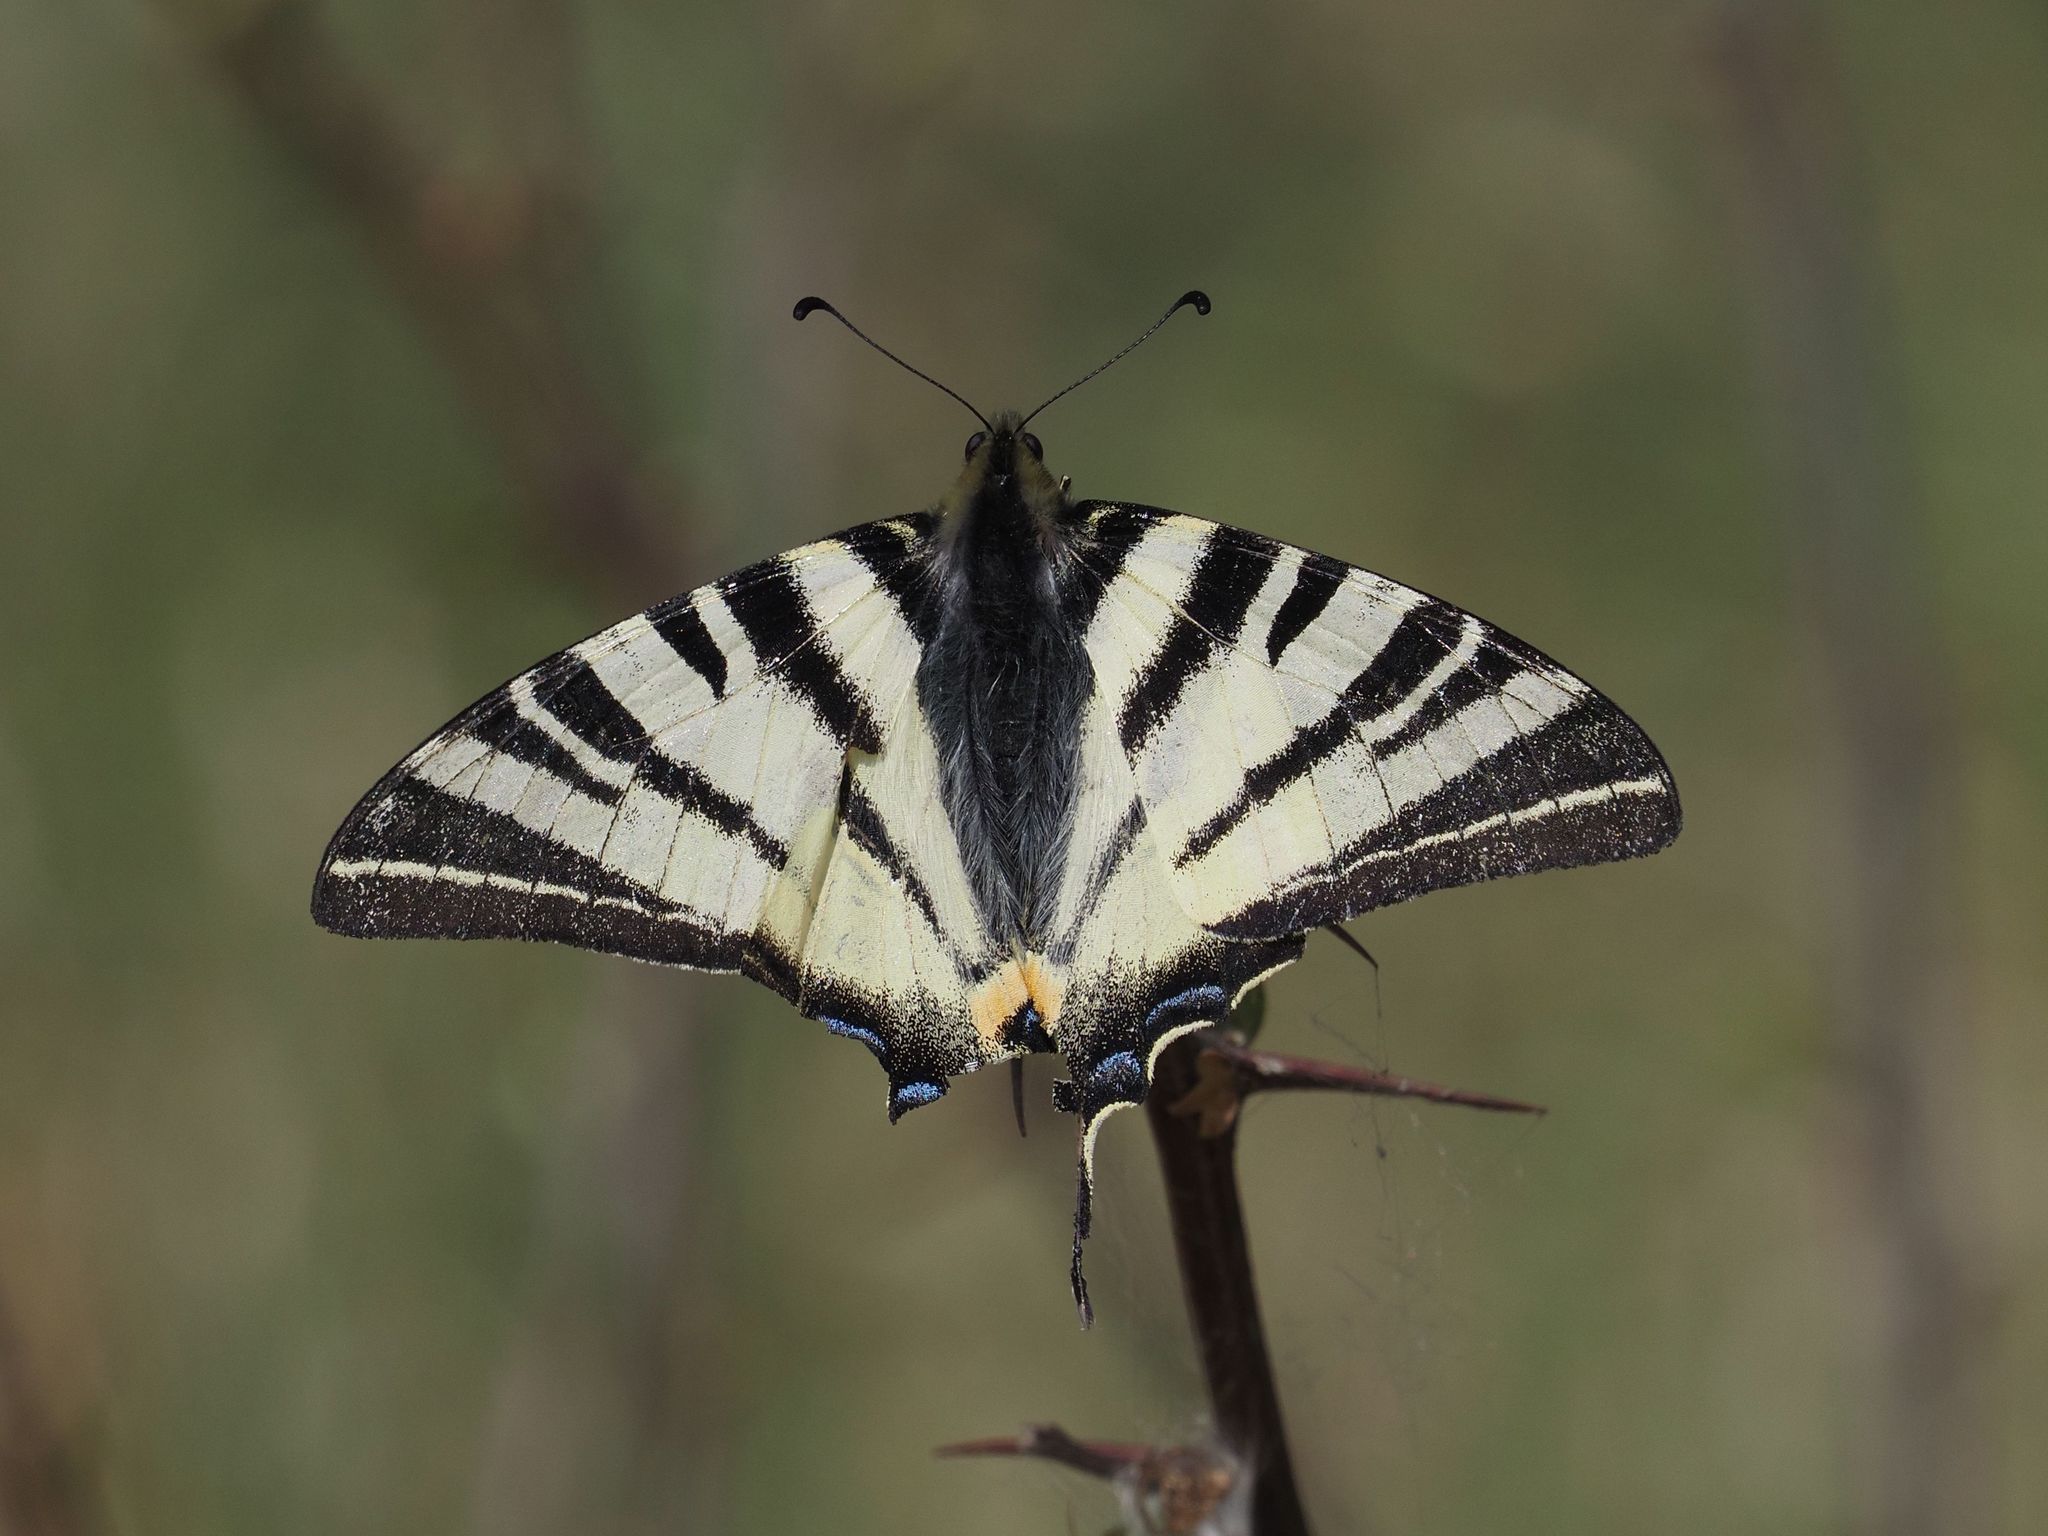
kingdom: Animalia
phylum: Arthropoda
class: Insecta
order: Lepidoptera
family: Papilionidae
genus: Iphiclides
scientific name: Iphiclides podalirius
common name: Scarce swallowtail
